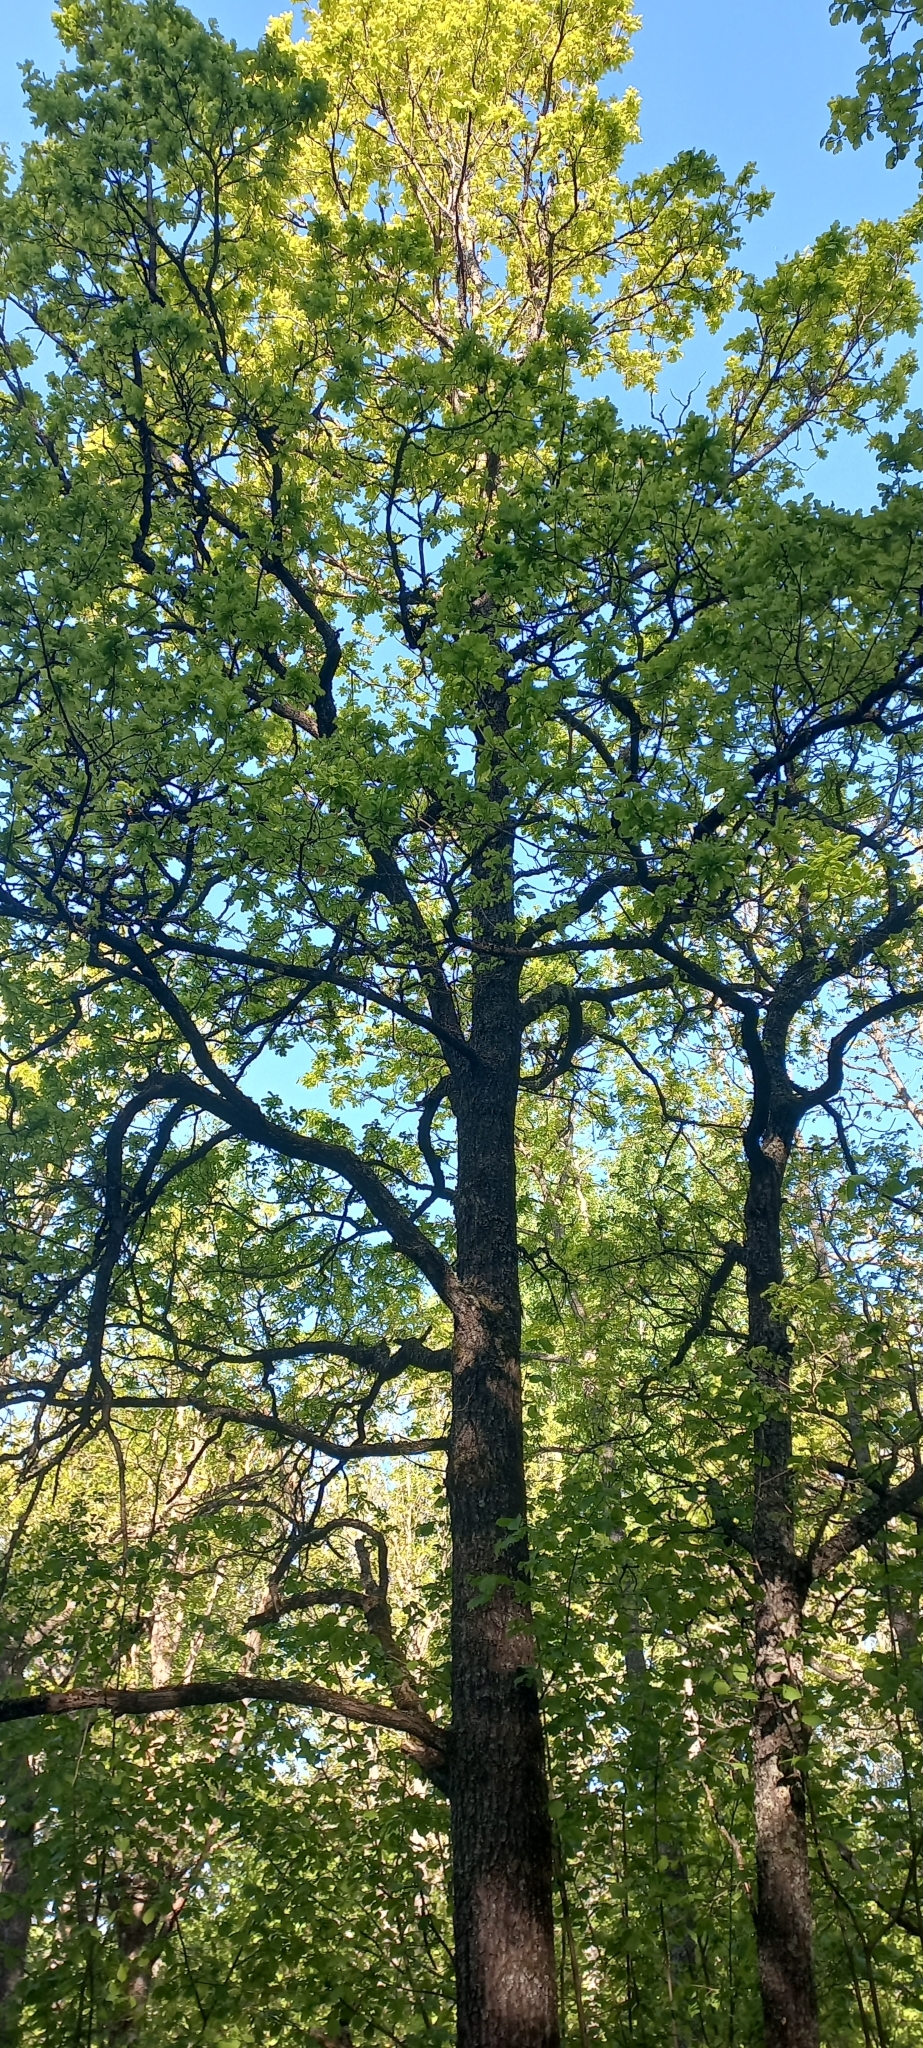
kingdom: Plantae
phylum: Tracheophyta
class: Magnoliopsida
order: Fagales
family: Fagaceae
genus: Quercus
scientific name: Quercus robur
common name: Pedunculate oak
